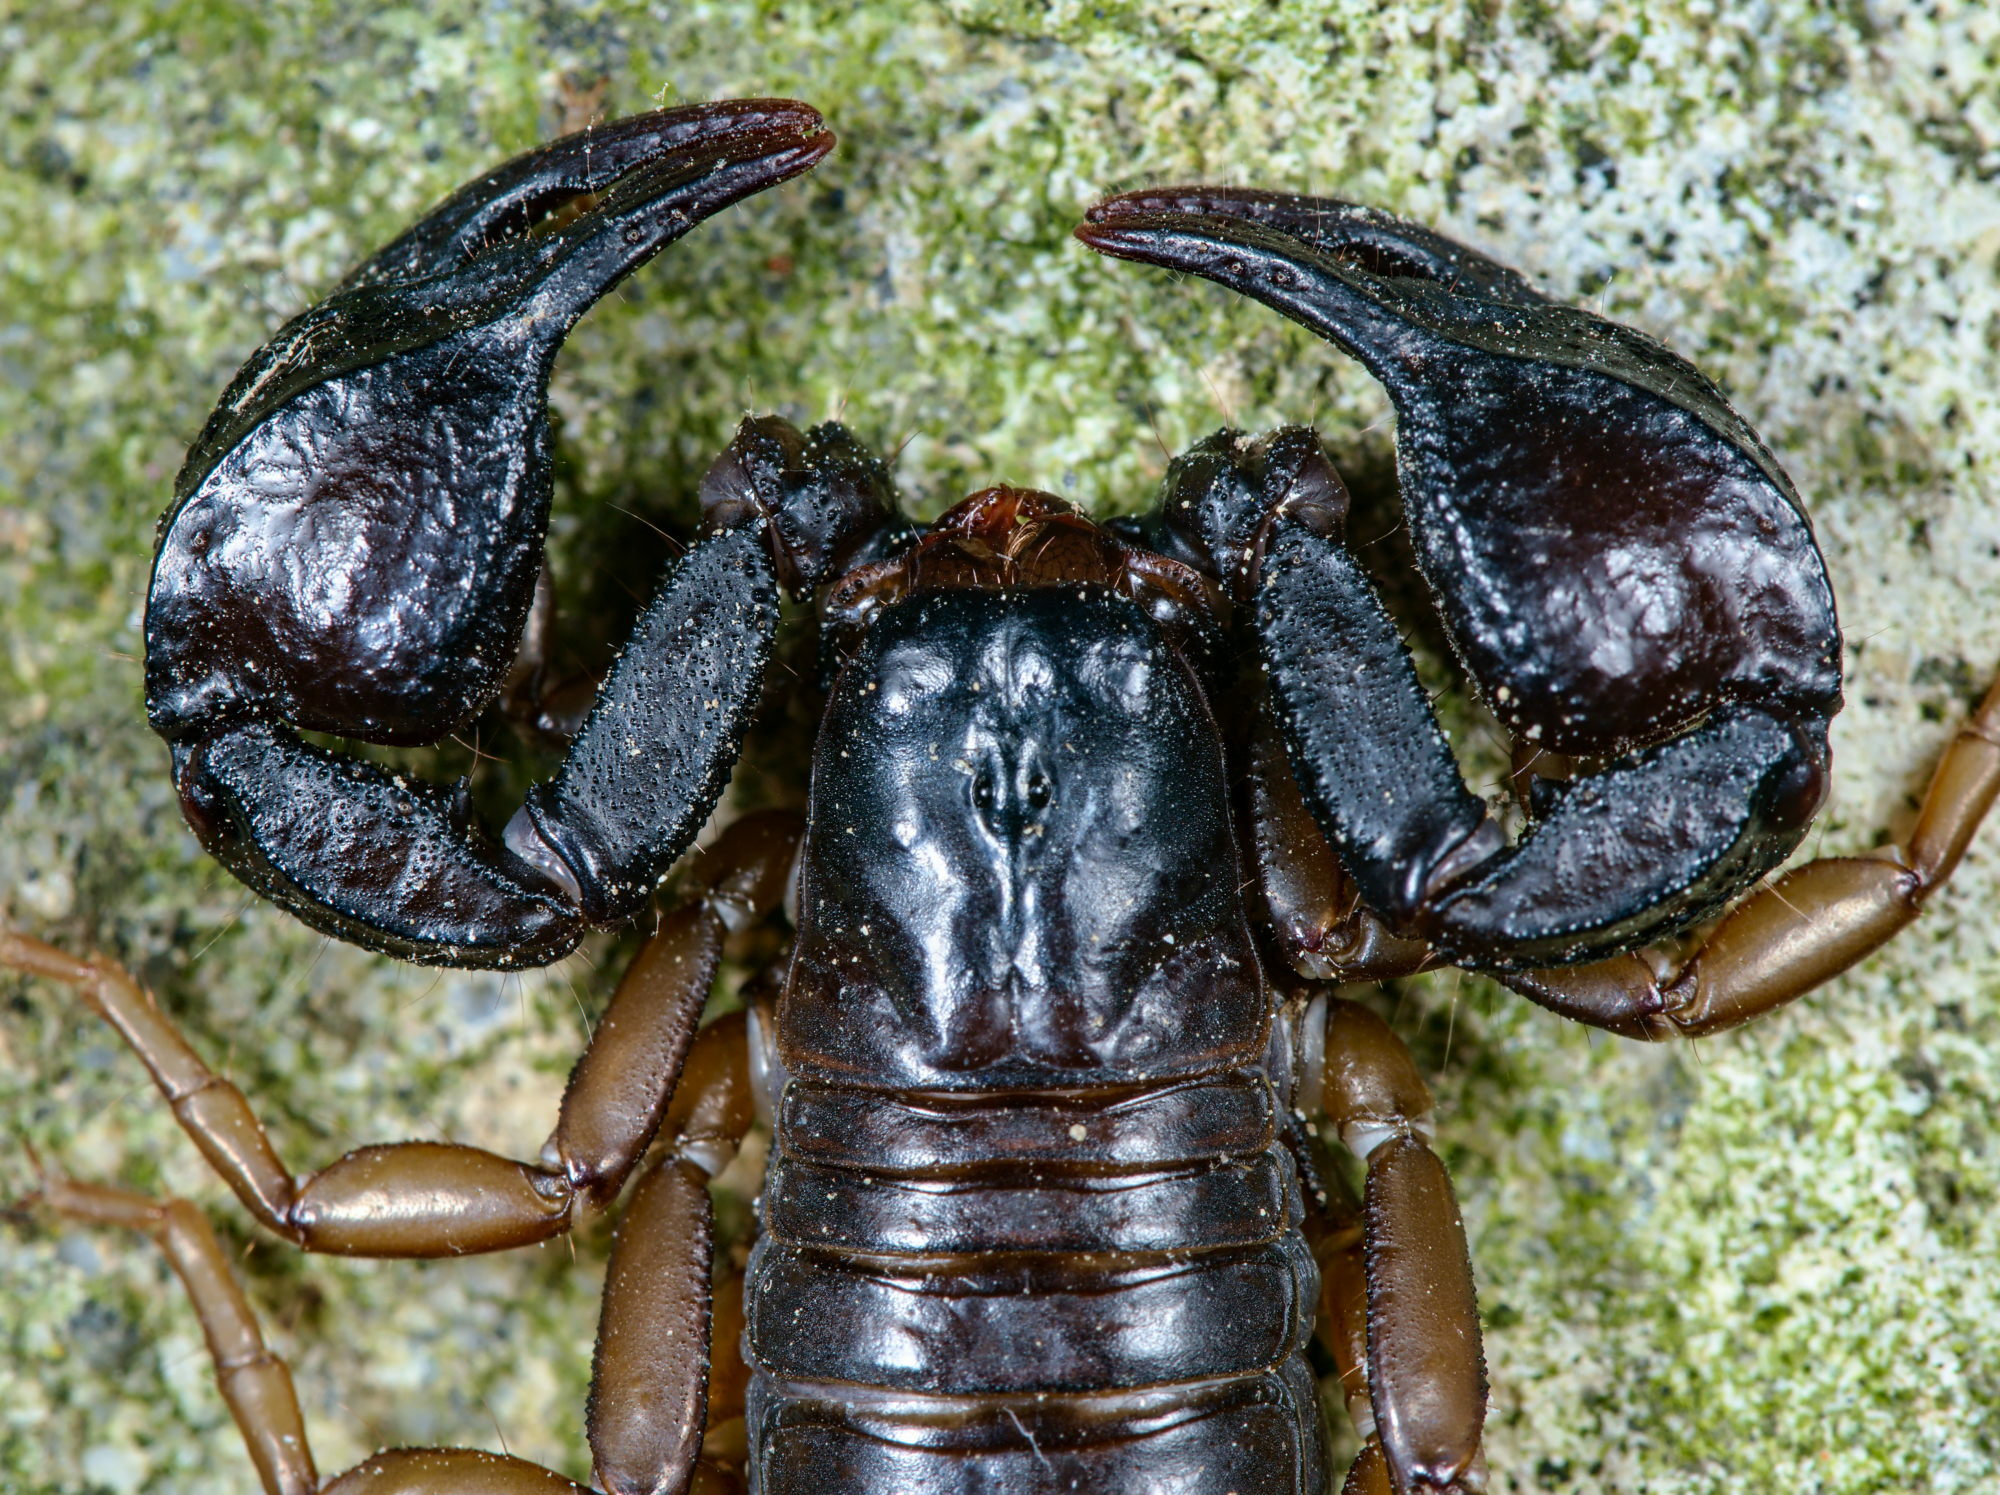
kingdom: Animalia
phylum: Arthropoda
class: Arachnida
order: Scorpiones
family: Euscorpiidae
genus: Euscorpius
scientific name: Euscorpius concinnus
